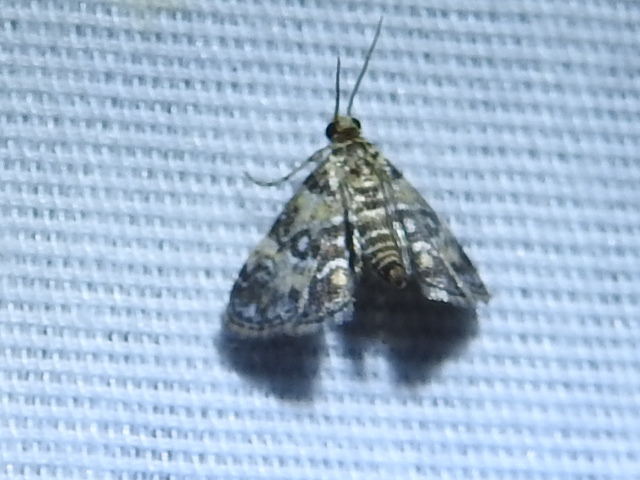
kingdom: Animalia
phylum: Arthropoda
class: Insecta
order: Lepidoptera
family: Crambidae
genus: Elophila
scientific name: Elophila obliteralis
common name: Waterlily leafcutter moth
